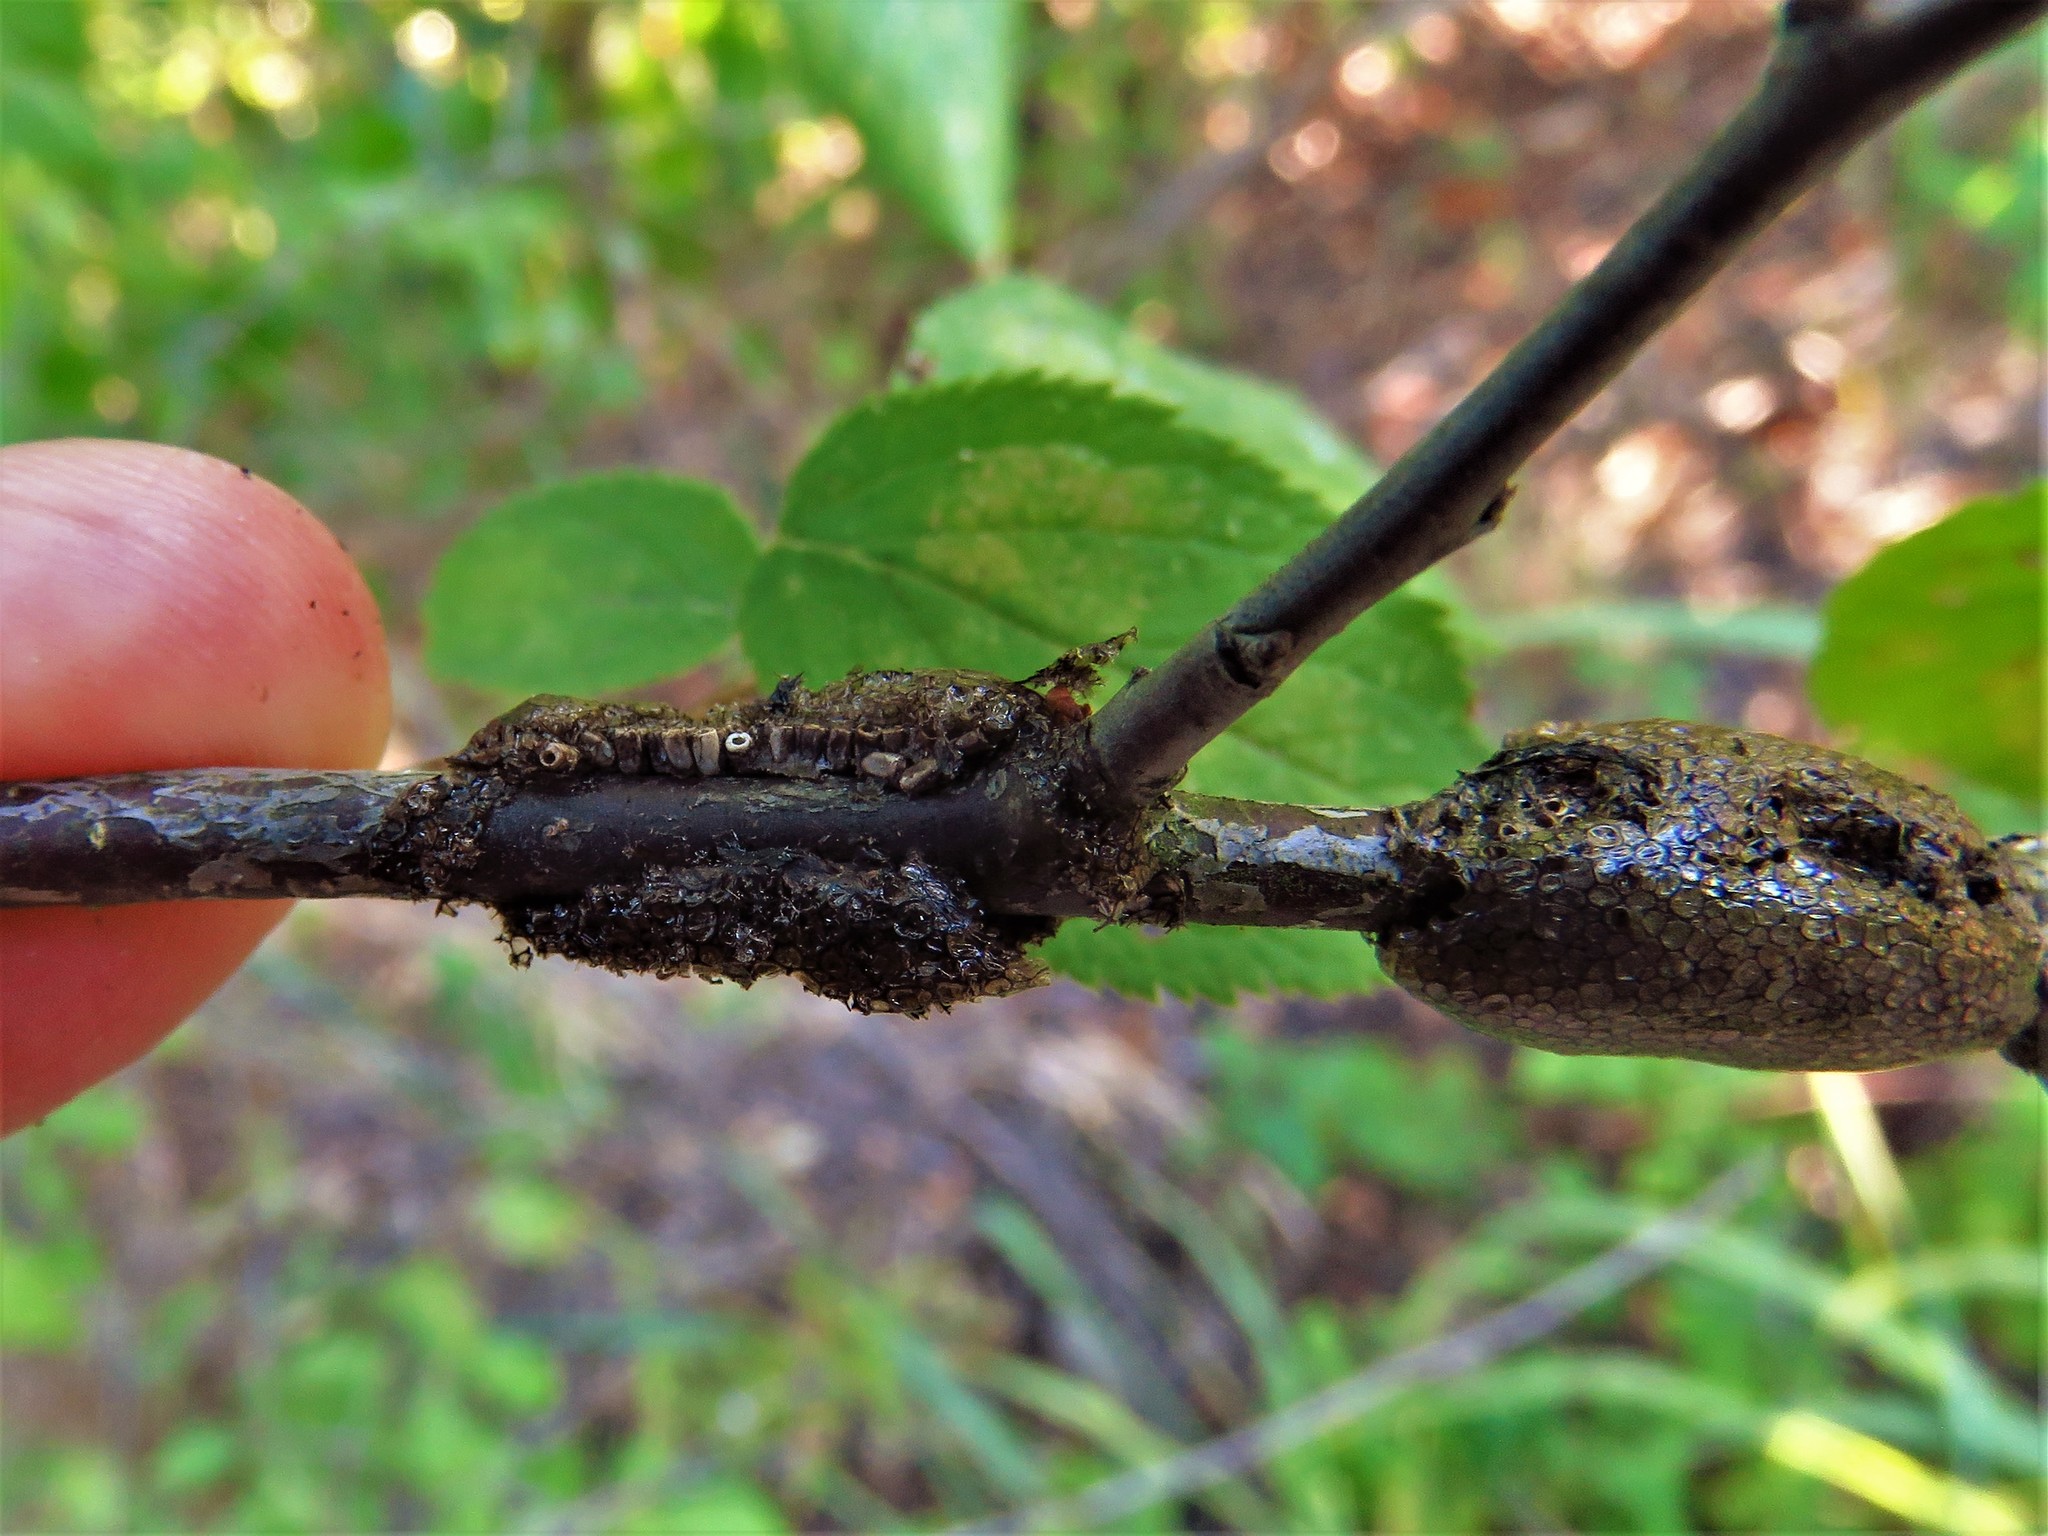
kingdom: Animalia
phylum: Arthropoda
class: Insecta
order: Lepidoptera
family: Lasiocampidae
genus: Malacosoma
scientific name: Malacosoma
